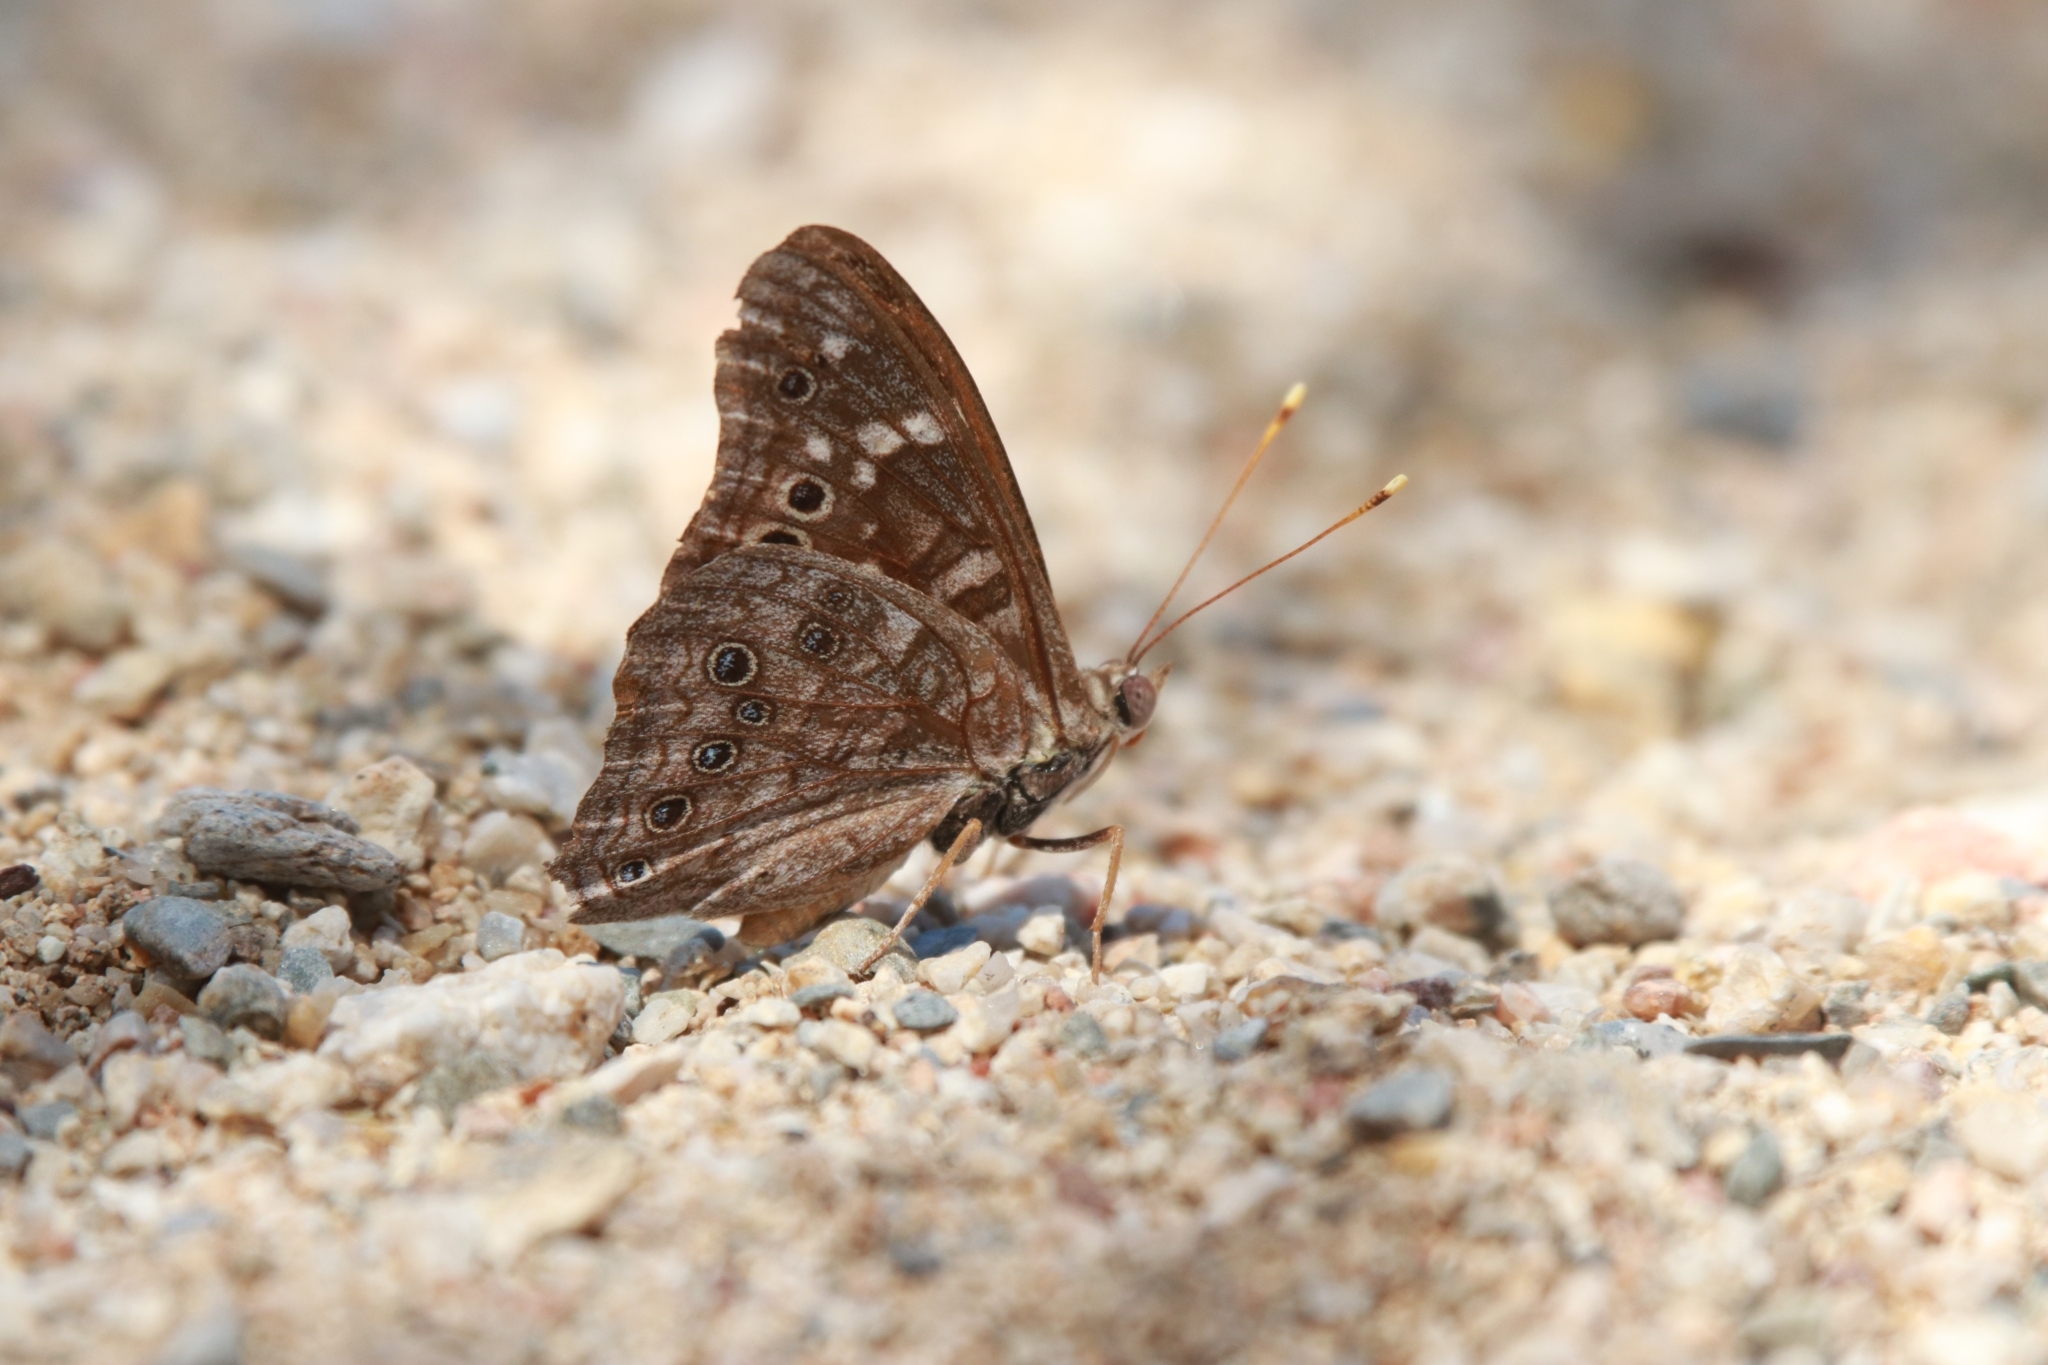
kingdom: Animalia
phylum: Arthropoda
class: Insecta
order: Lepidoptera
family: Nymphalidae
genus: Asterocampa
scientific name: Asterocampa leilia
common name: Empress leilia
